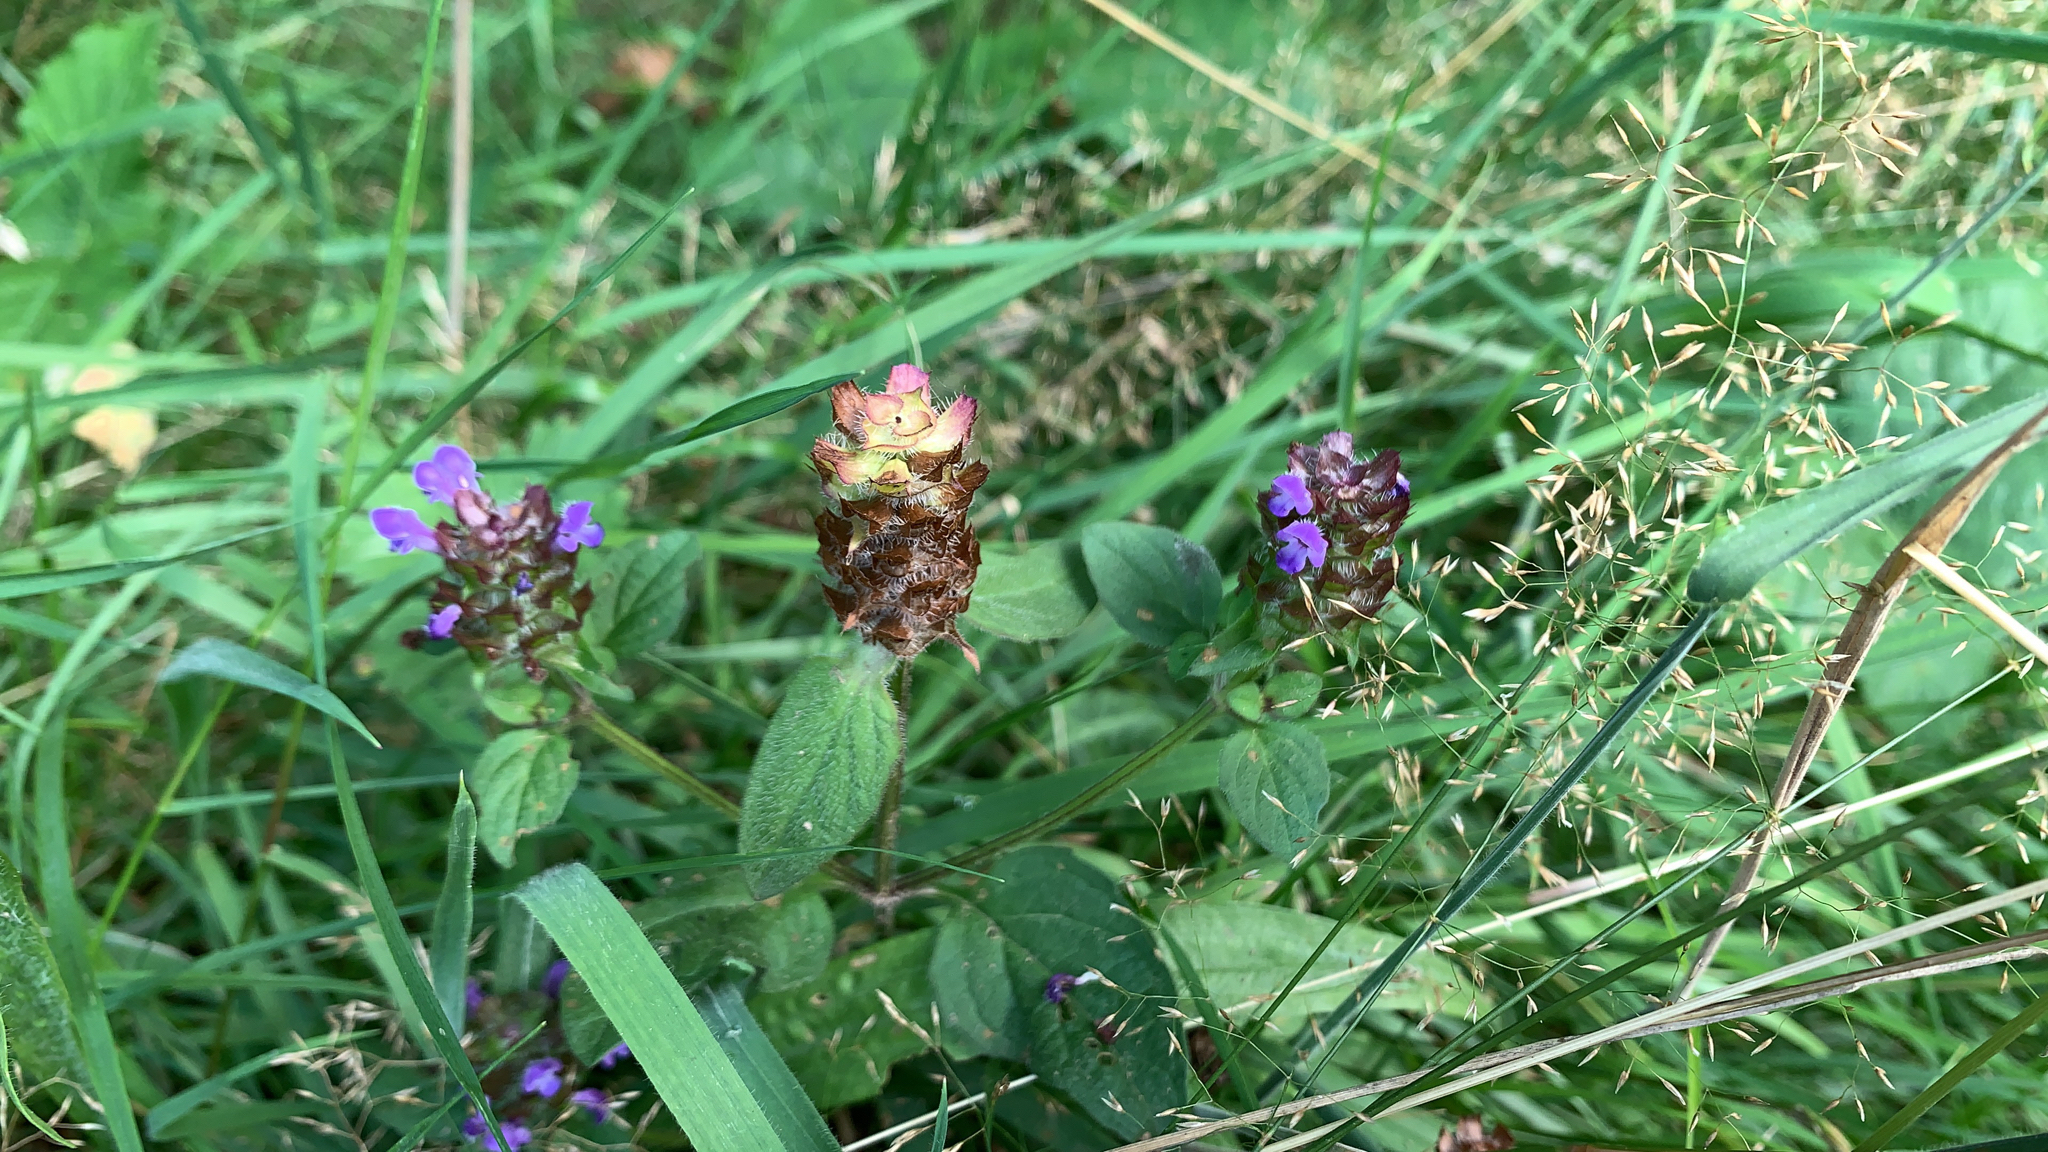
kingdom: Plantae
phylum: Tracheophyta
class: Magnoliopsida
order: Lamiales
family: Lamiaceae
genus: Prunella
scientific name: Prunella vulgaris
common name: Heal-all
